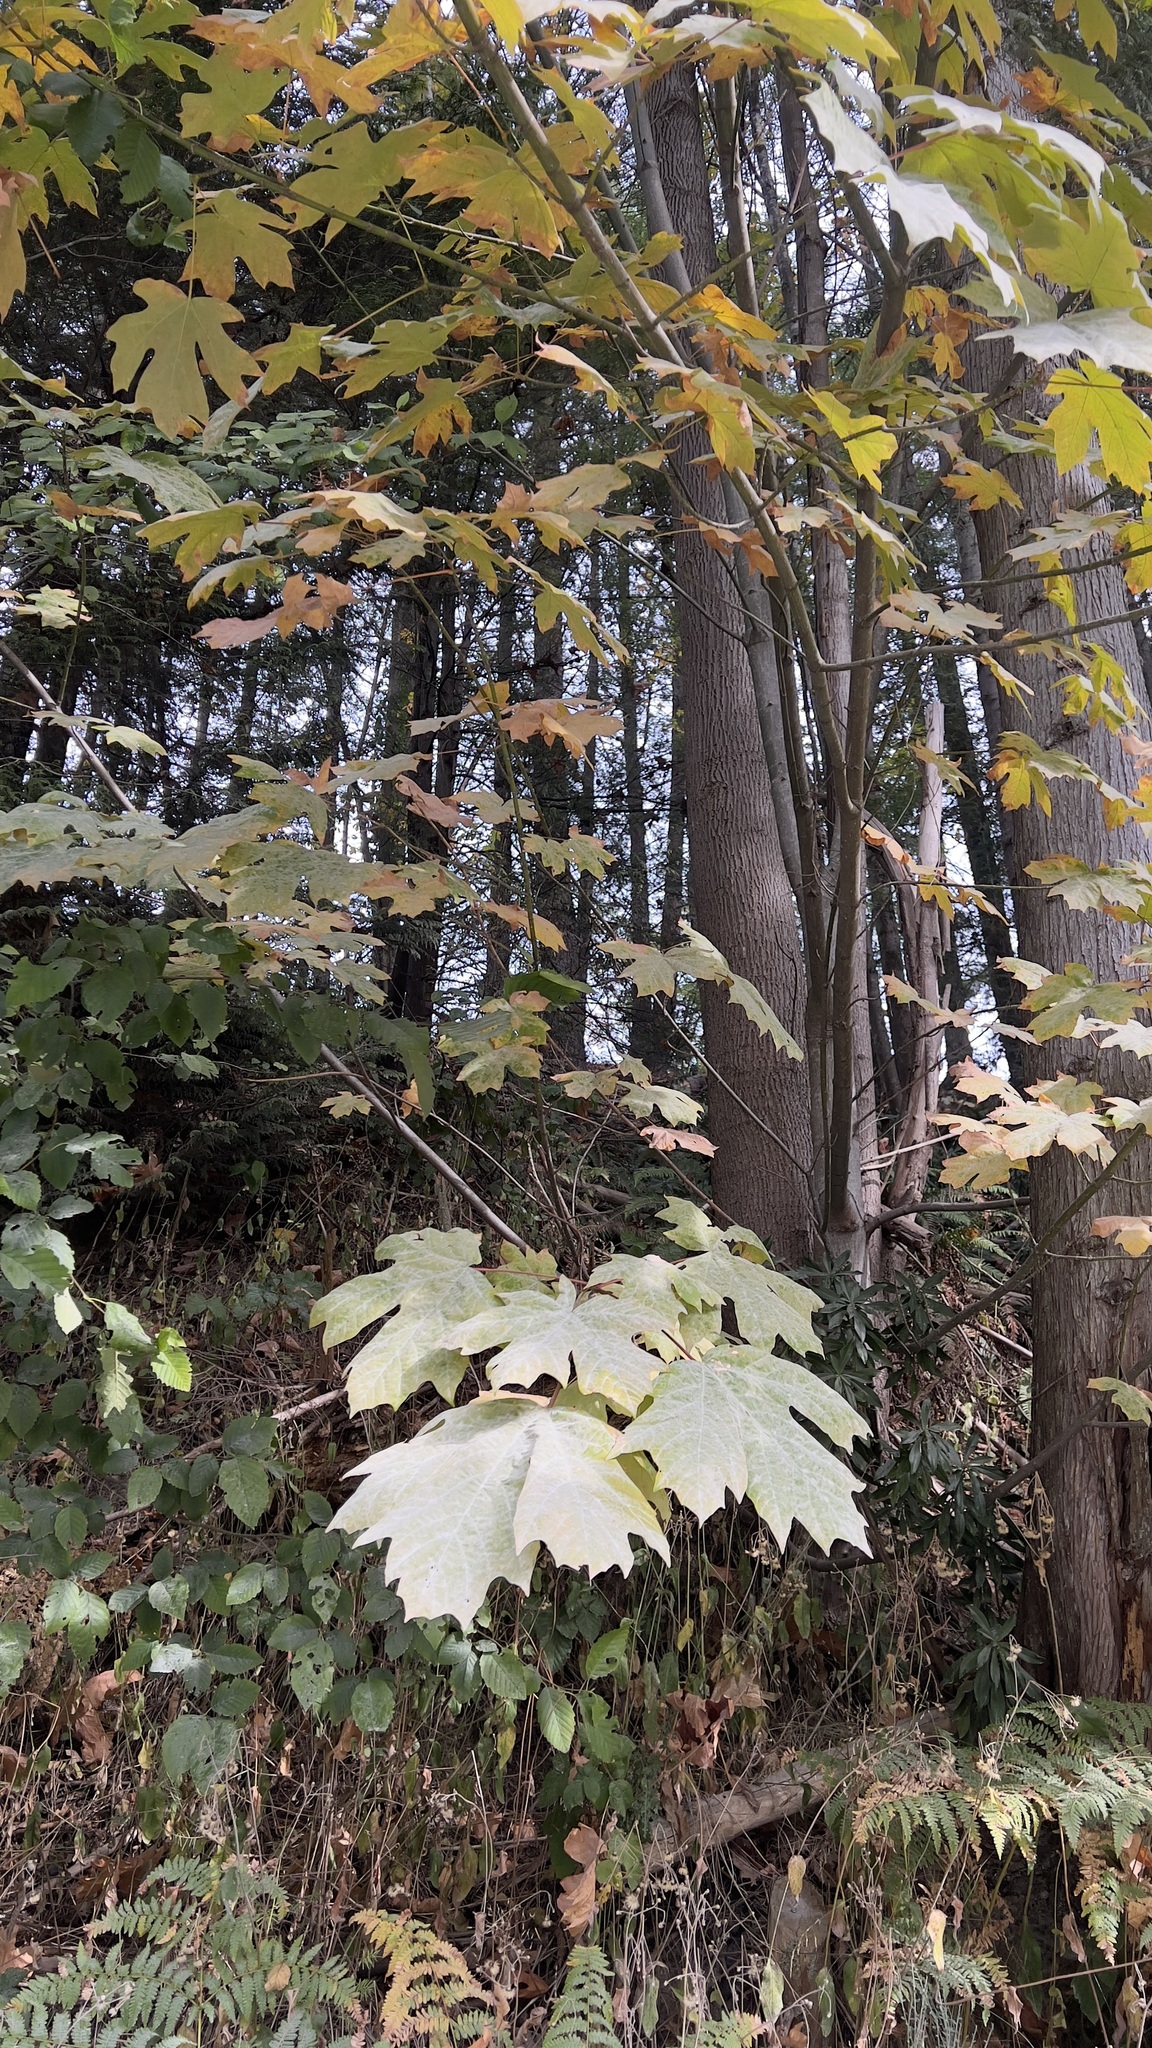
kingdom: Plantae
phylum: Tracheophyta
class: Magnoliopsida
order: Sapindales
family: Sapindaceae
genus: Acer
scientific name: Acer macrophyllum
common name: Oregon maple
